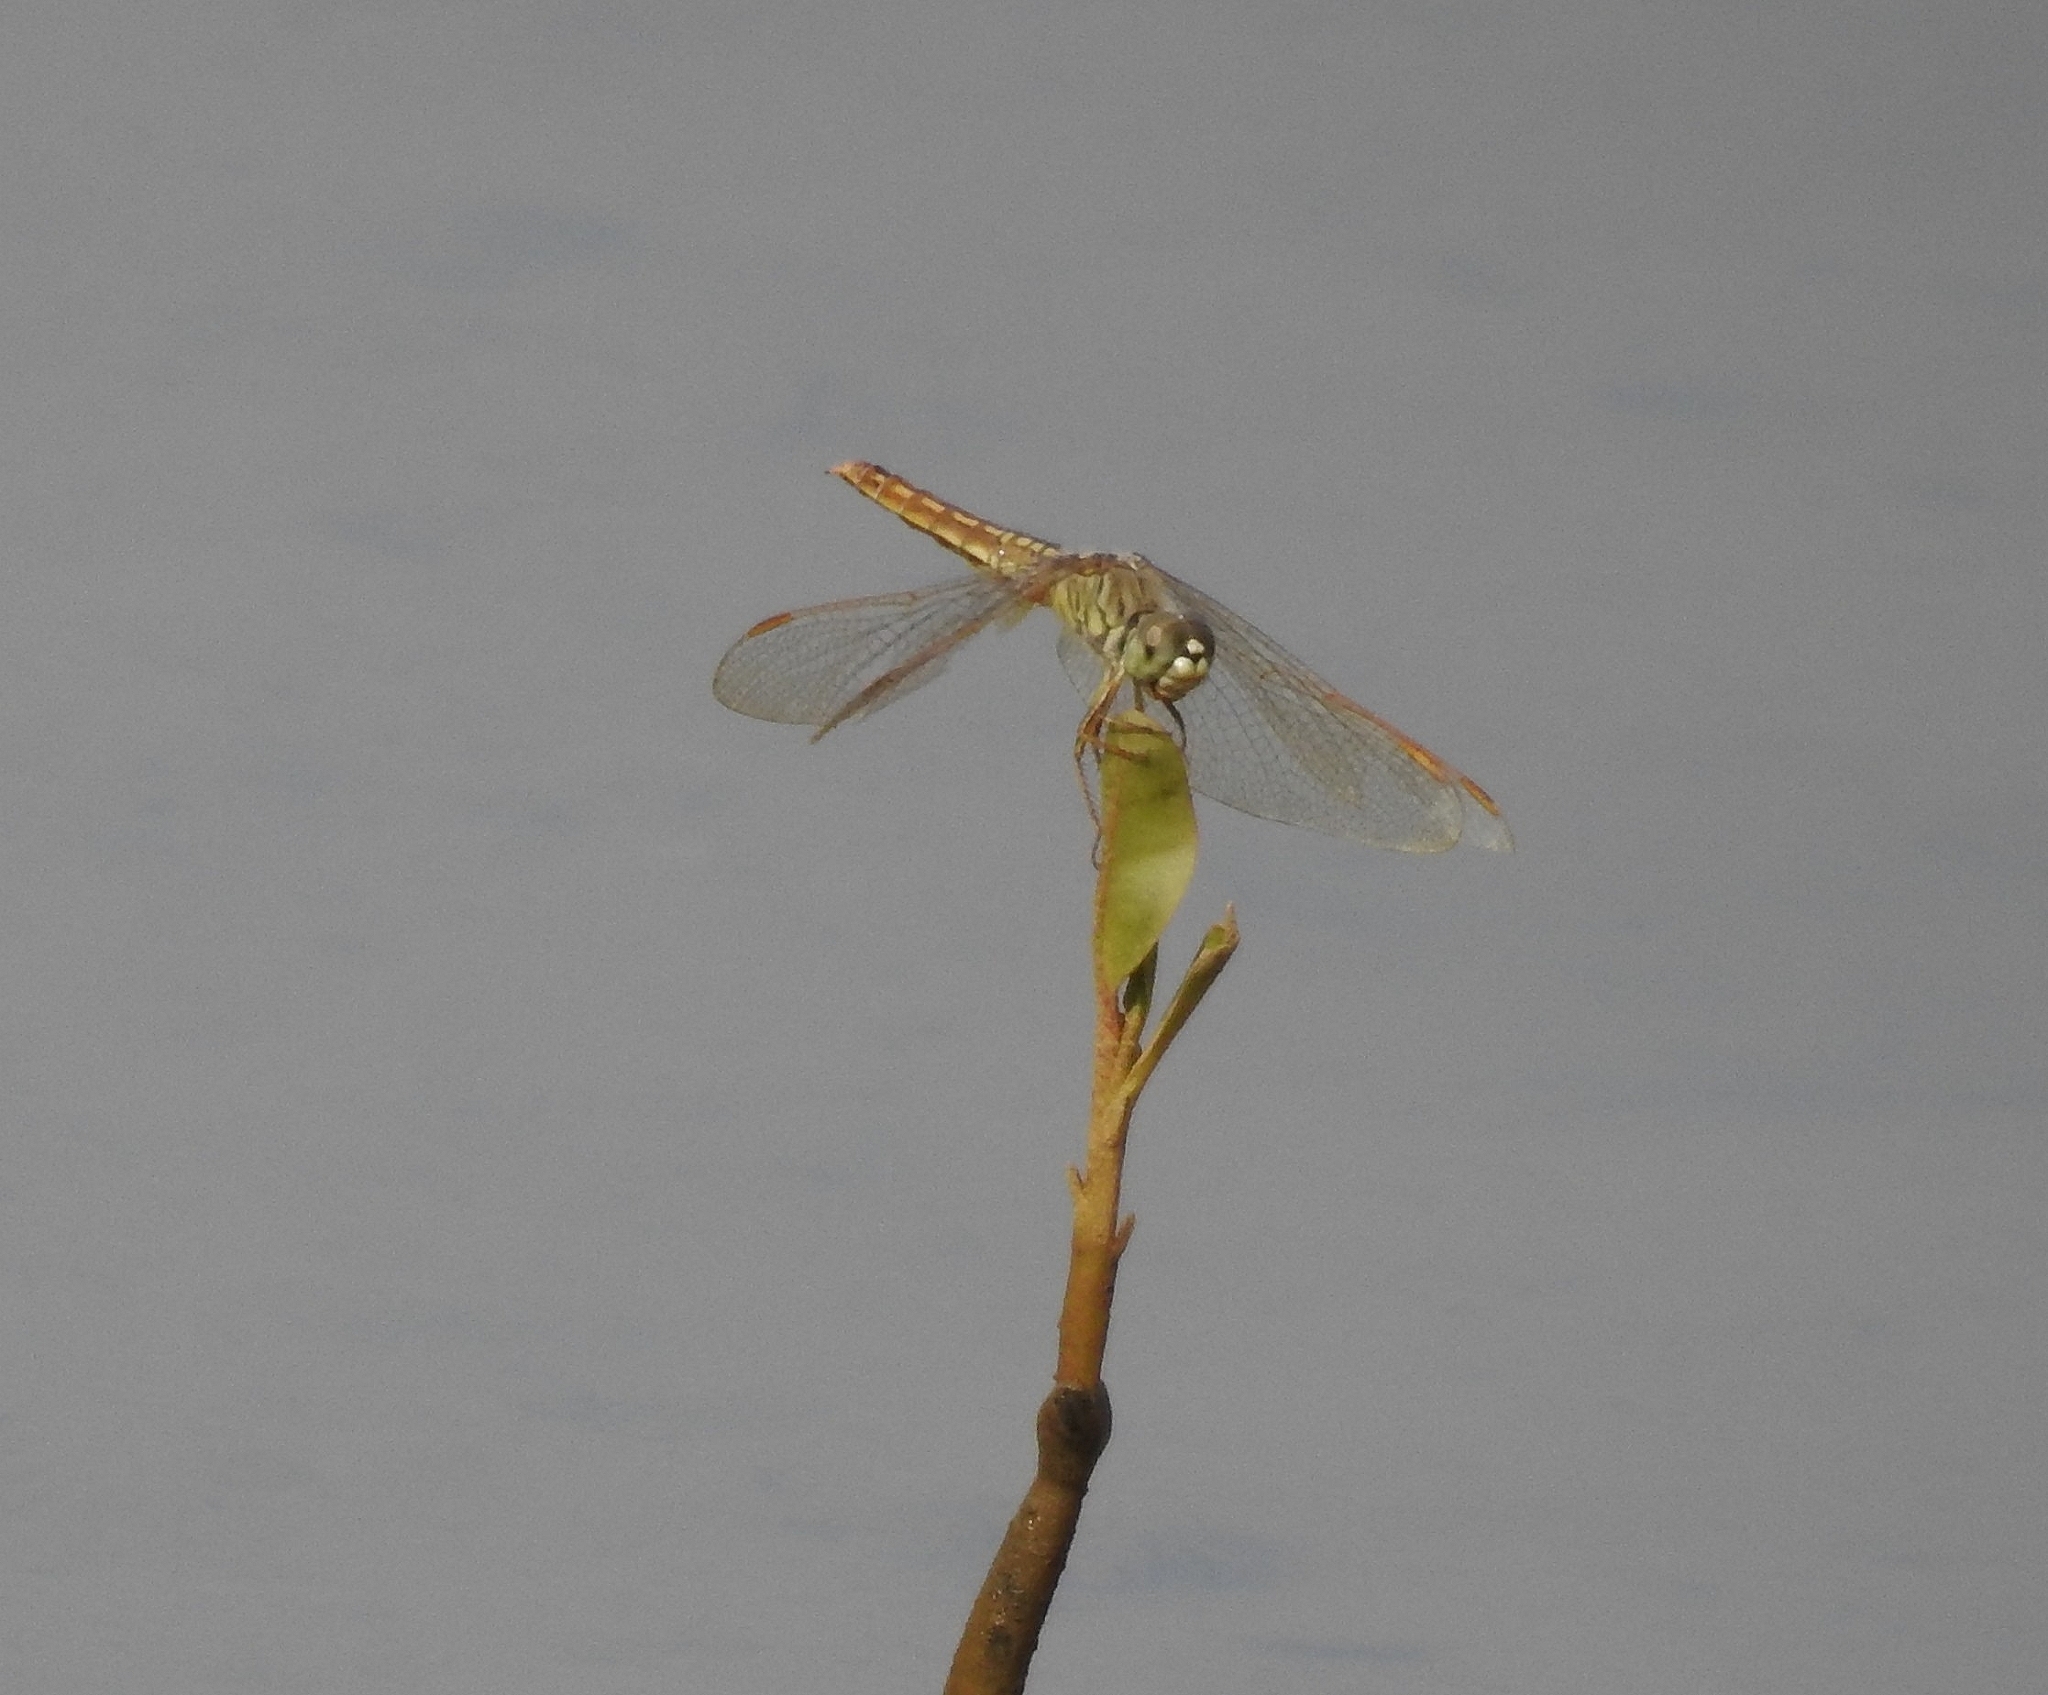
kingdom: Animalia
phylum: Arthropoda
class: Insecta
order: Odonata
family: Libellulidae
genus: Brachythemis
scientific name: Brachythemis contaminata
